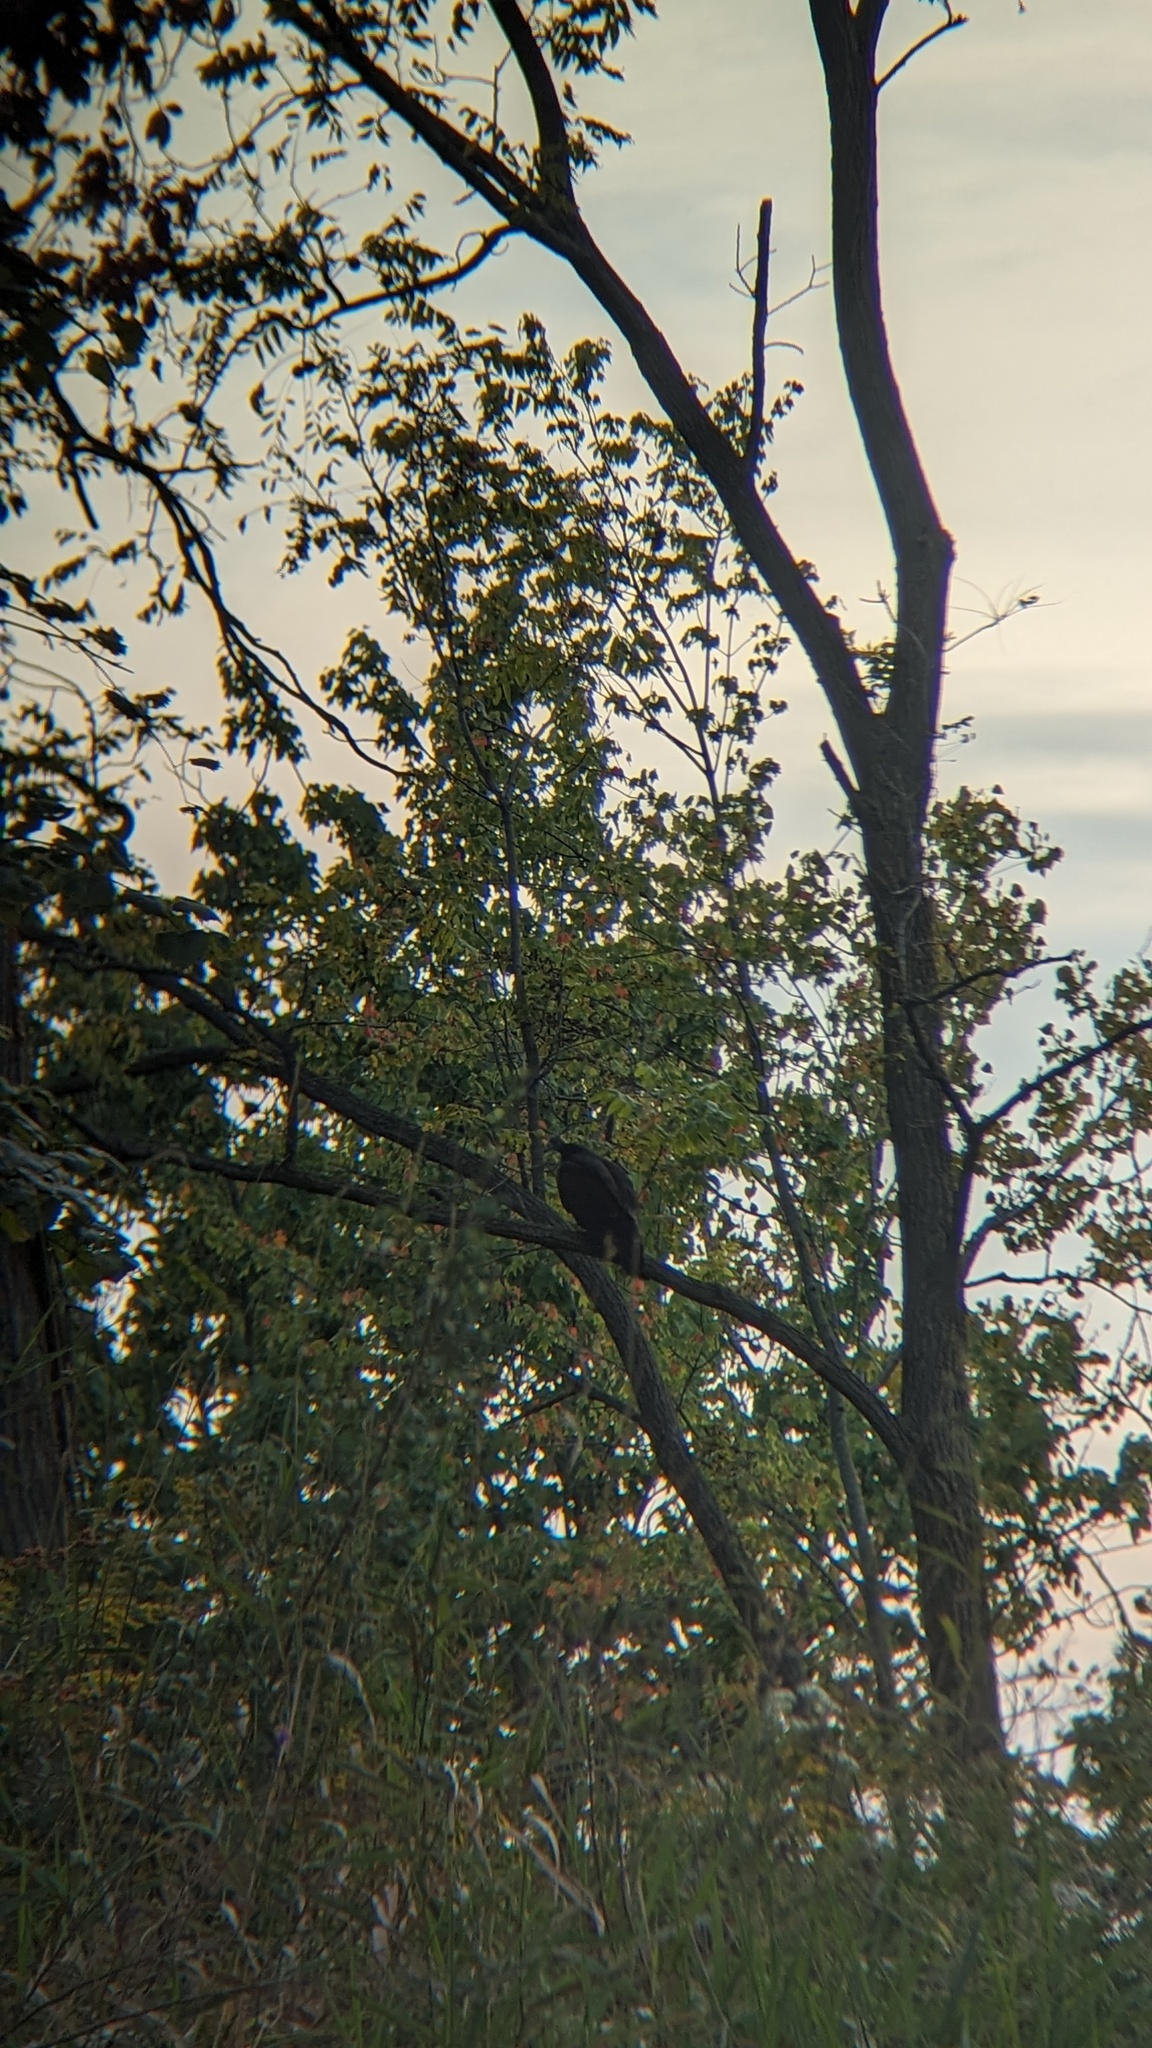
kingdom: Animalia
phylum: Chordata
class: Aves
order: Accipitriformes
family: Cathartidae
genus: Cathartes
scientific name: Cathartes aura
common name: Turkey vulture
